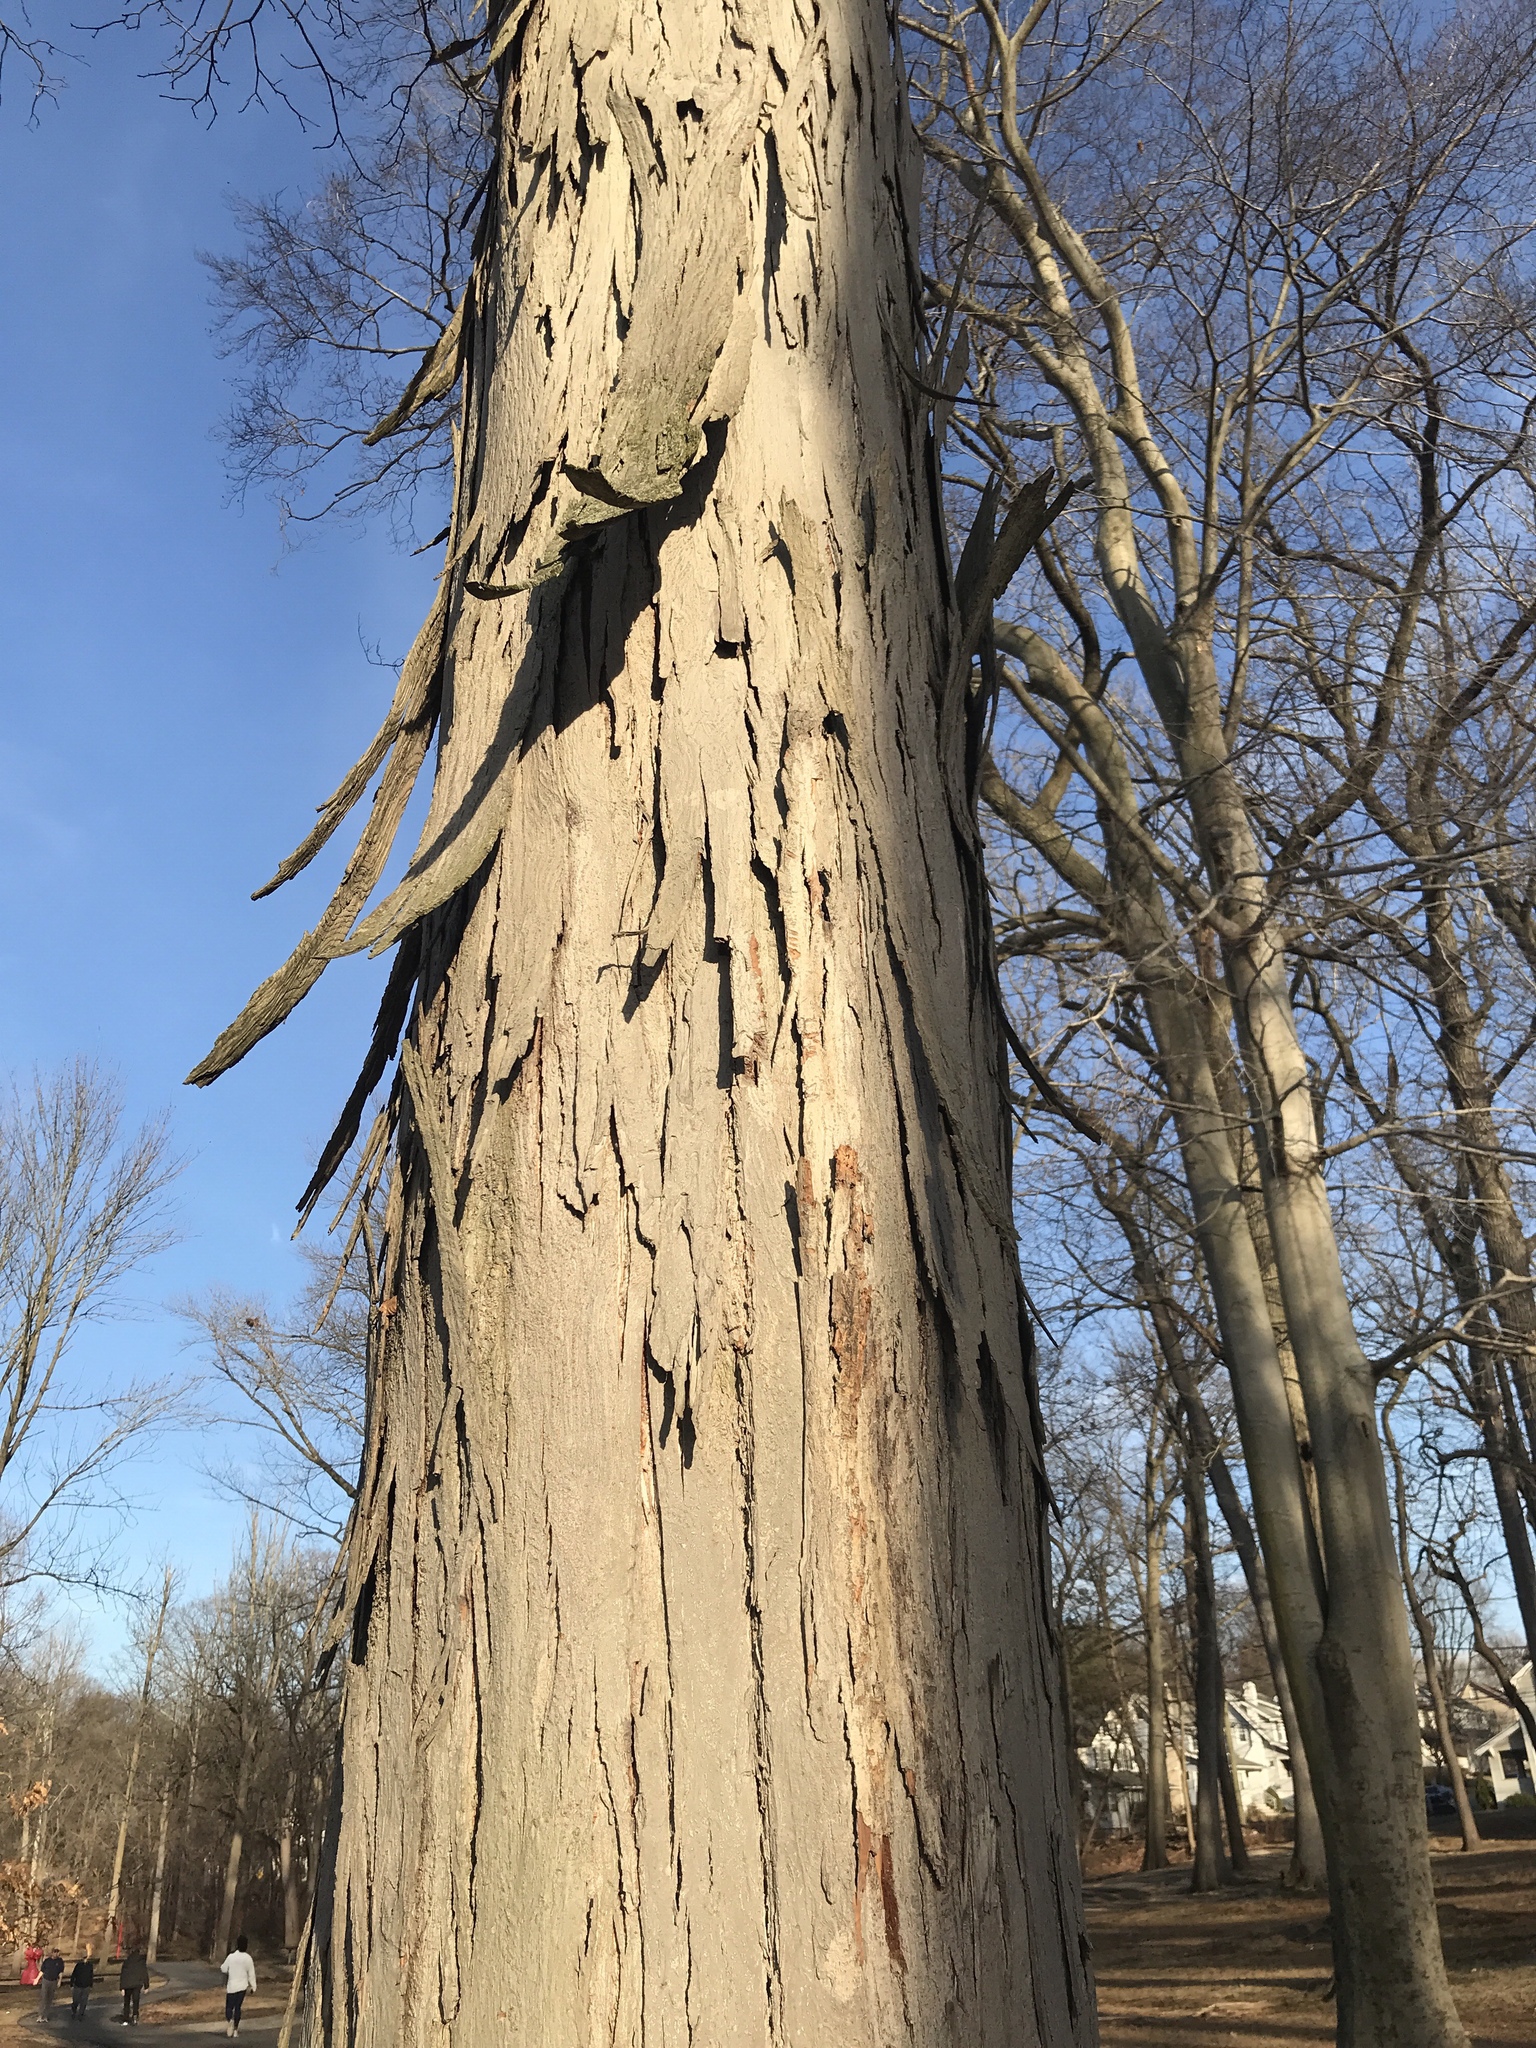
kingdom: Plantae
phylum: Tracheophyta
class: Magnoliopsida
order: Fagales
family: Juglandaceae
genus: Carya
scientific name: Carya ovata
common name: Shagbark hickory
